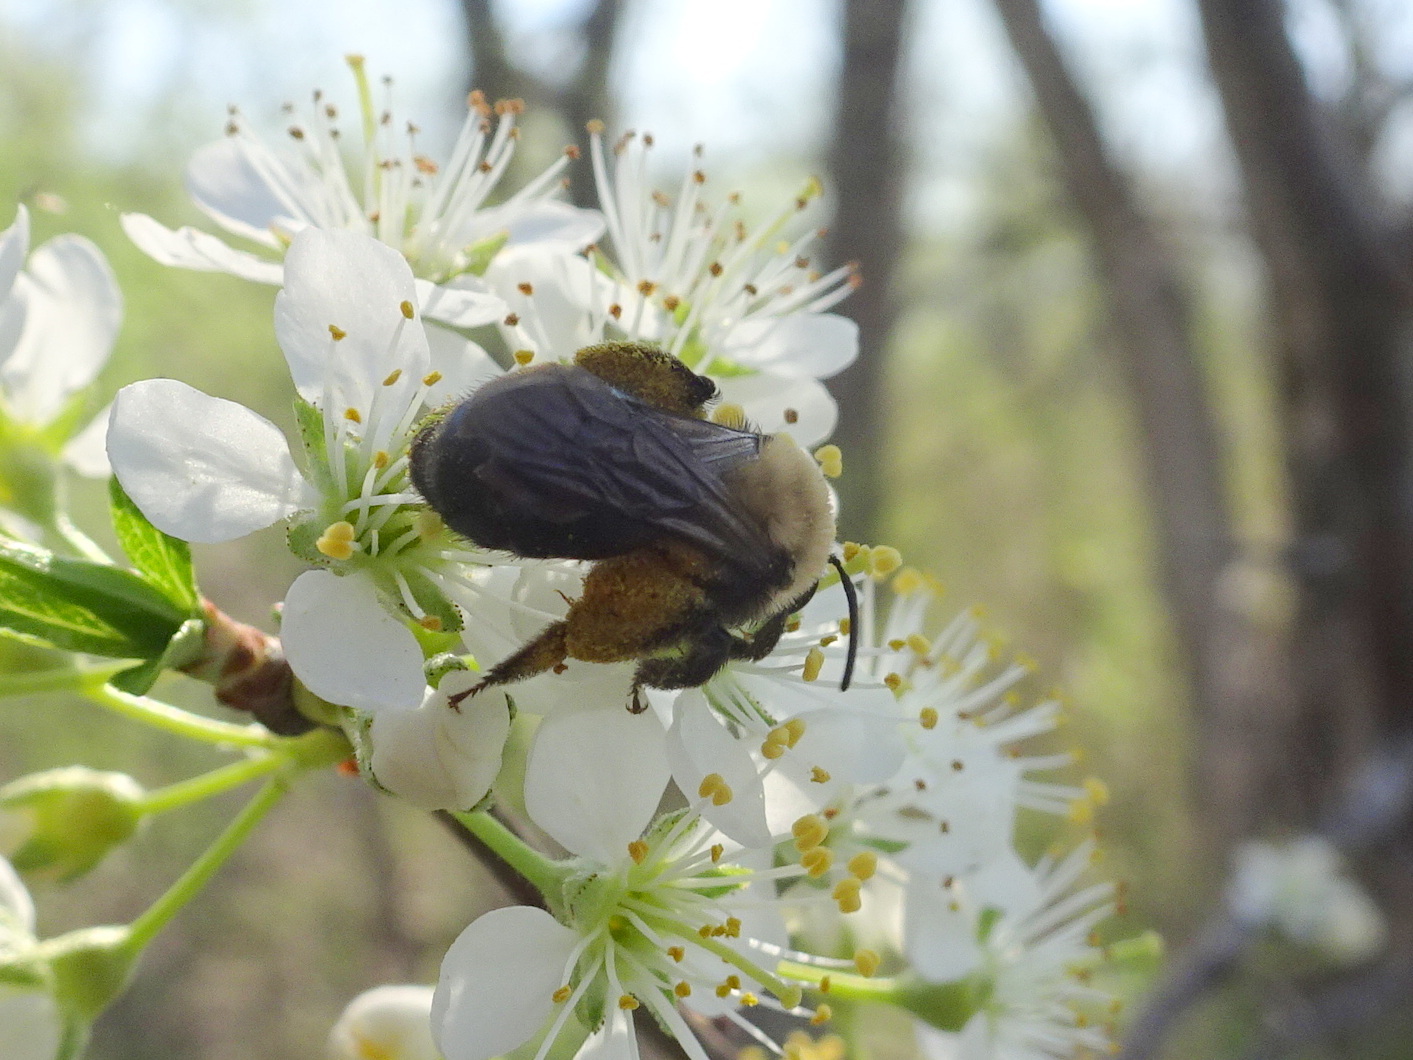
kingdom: Animalia
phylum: Arthropoda
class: Insecta
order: Hymenoptera
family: Andrenidae
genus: Andrena
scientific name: Andrena carlini
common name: Carlin's mining bee
